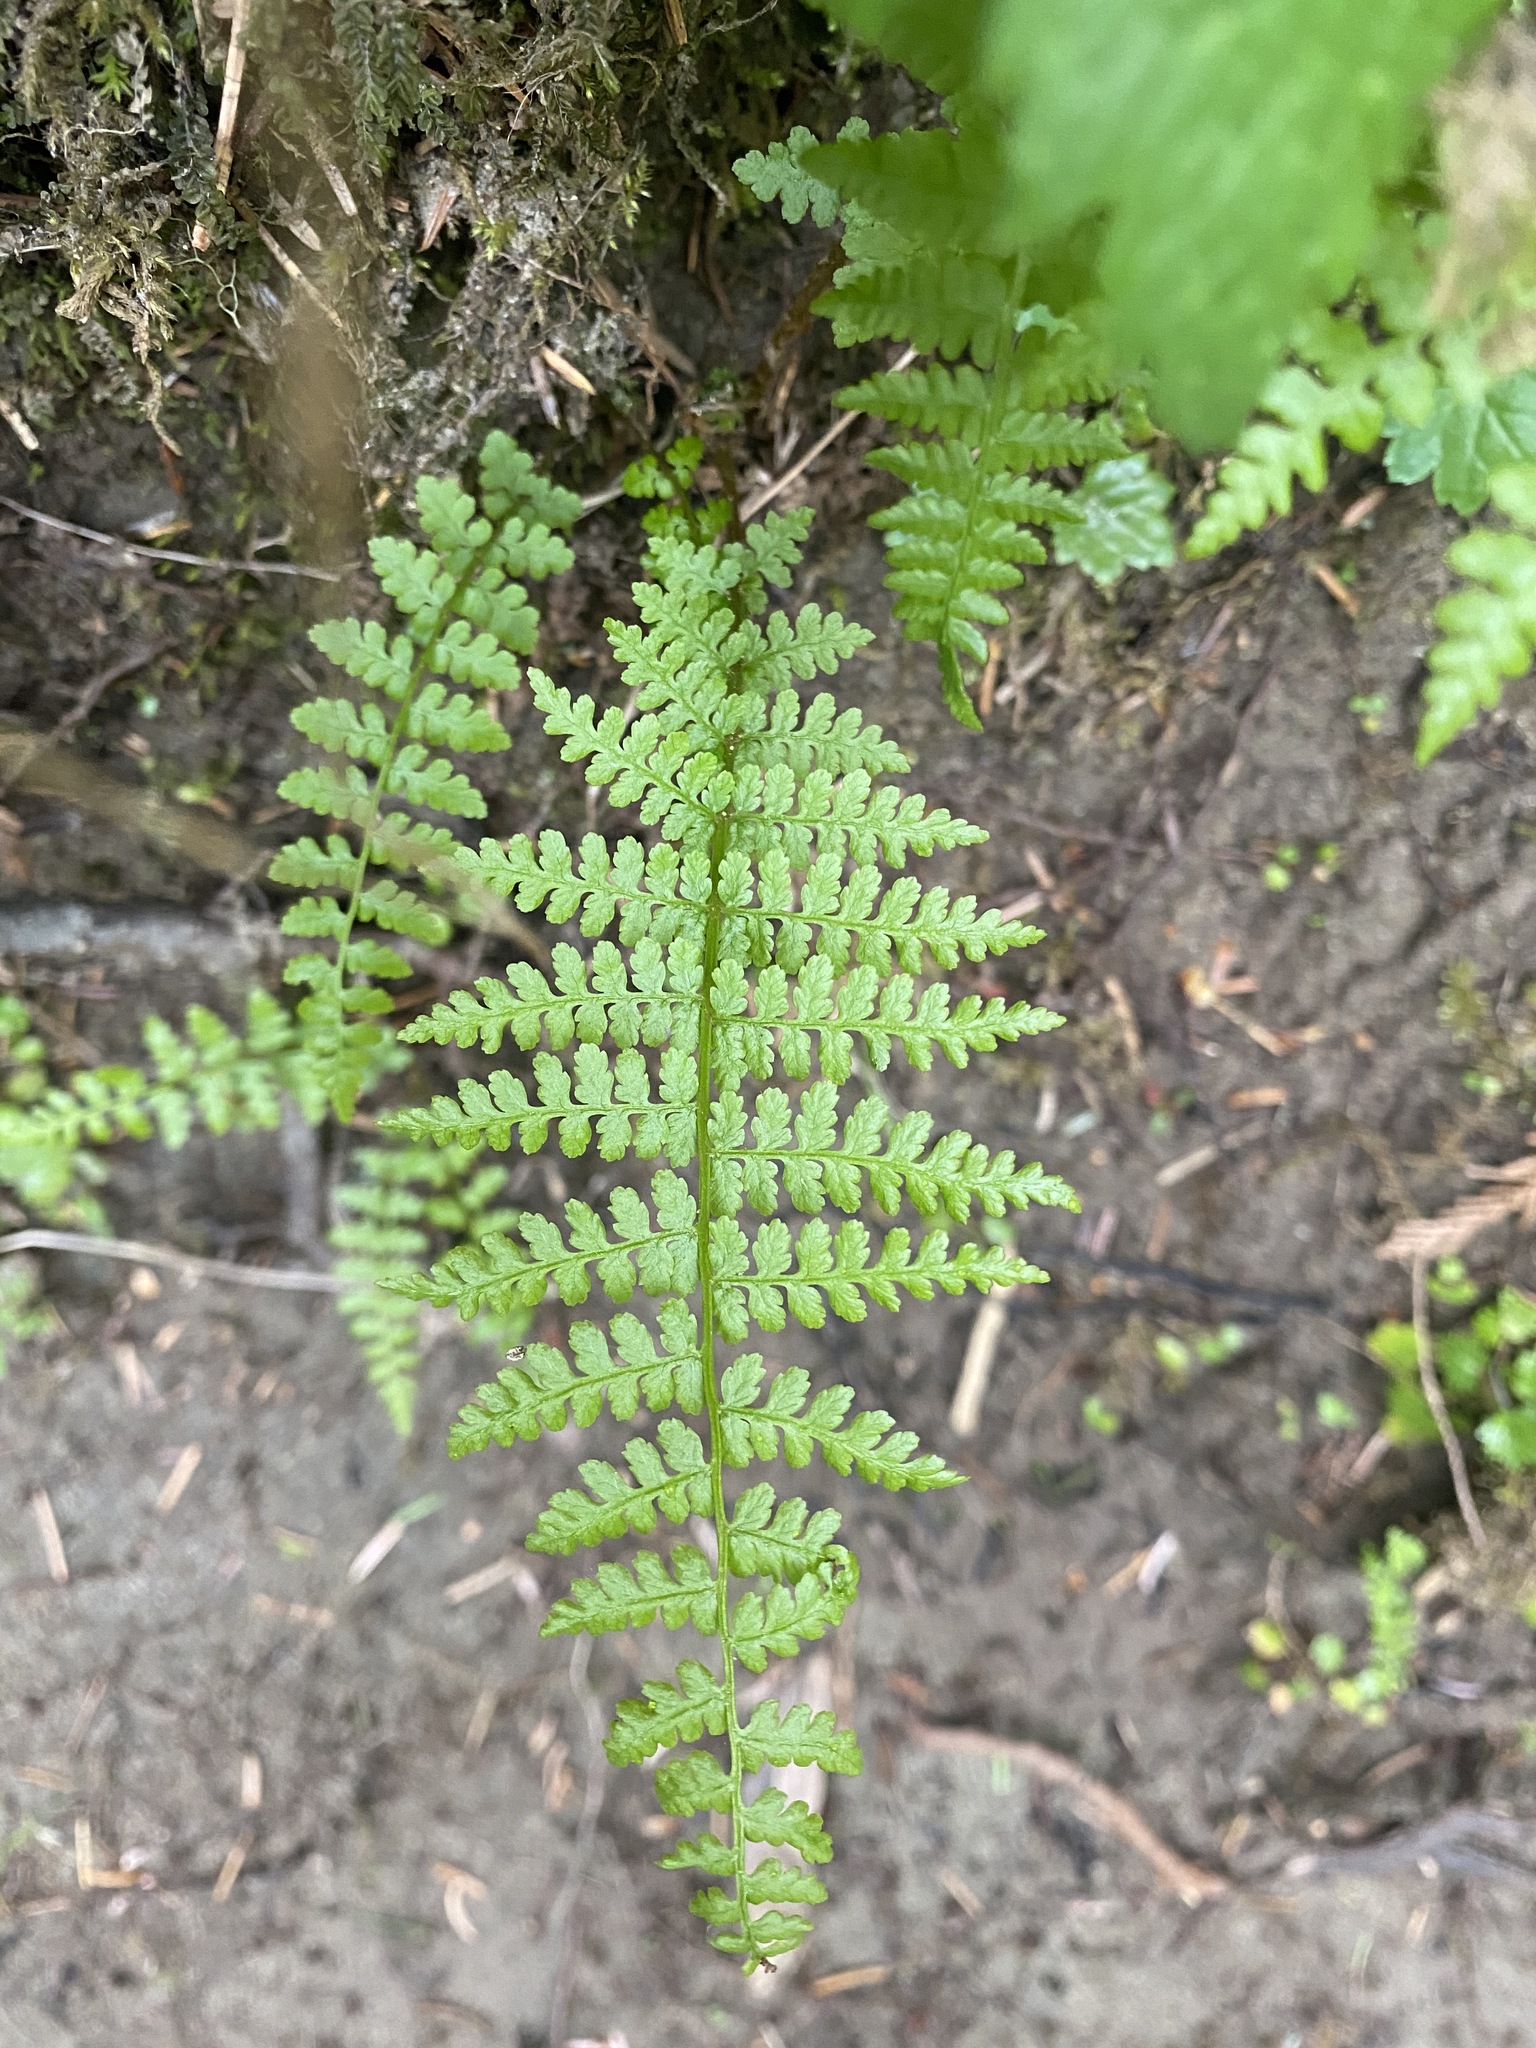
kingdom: Plantae
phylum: Tracheophyta
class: Polypodiopsida
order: Polypodiales
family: Athyriaceae
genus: Athyrium
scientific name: Athyrium filix-femina
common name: Lady fern
